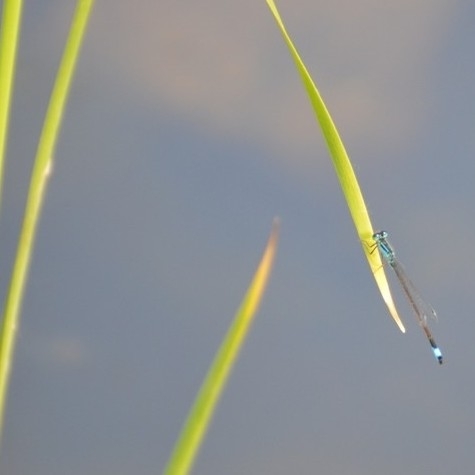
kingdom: Animalia
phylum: Arthropoda
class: Insecta
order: Odonata
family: Coenagrionidae
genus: Ischnura
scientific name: Ischnura elegans
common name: Blue-tailed damselfly
